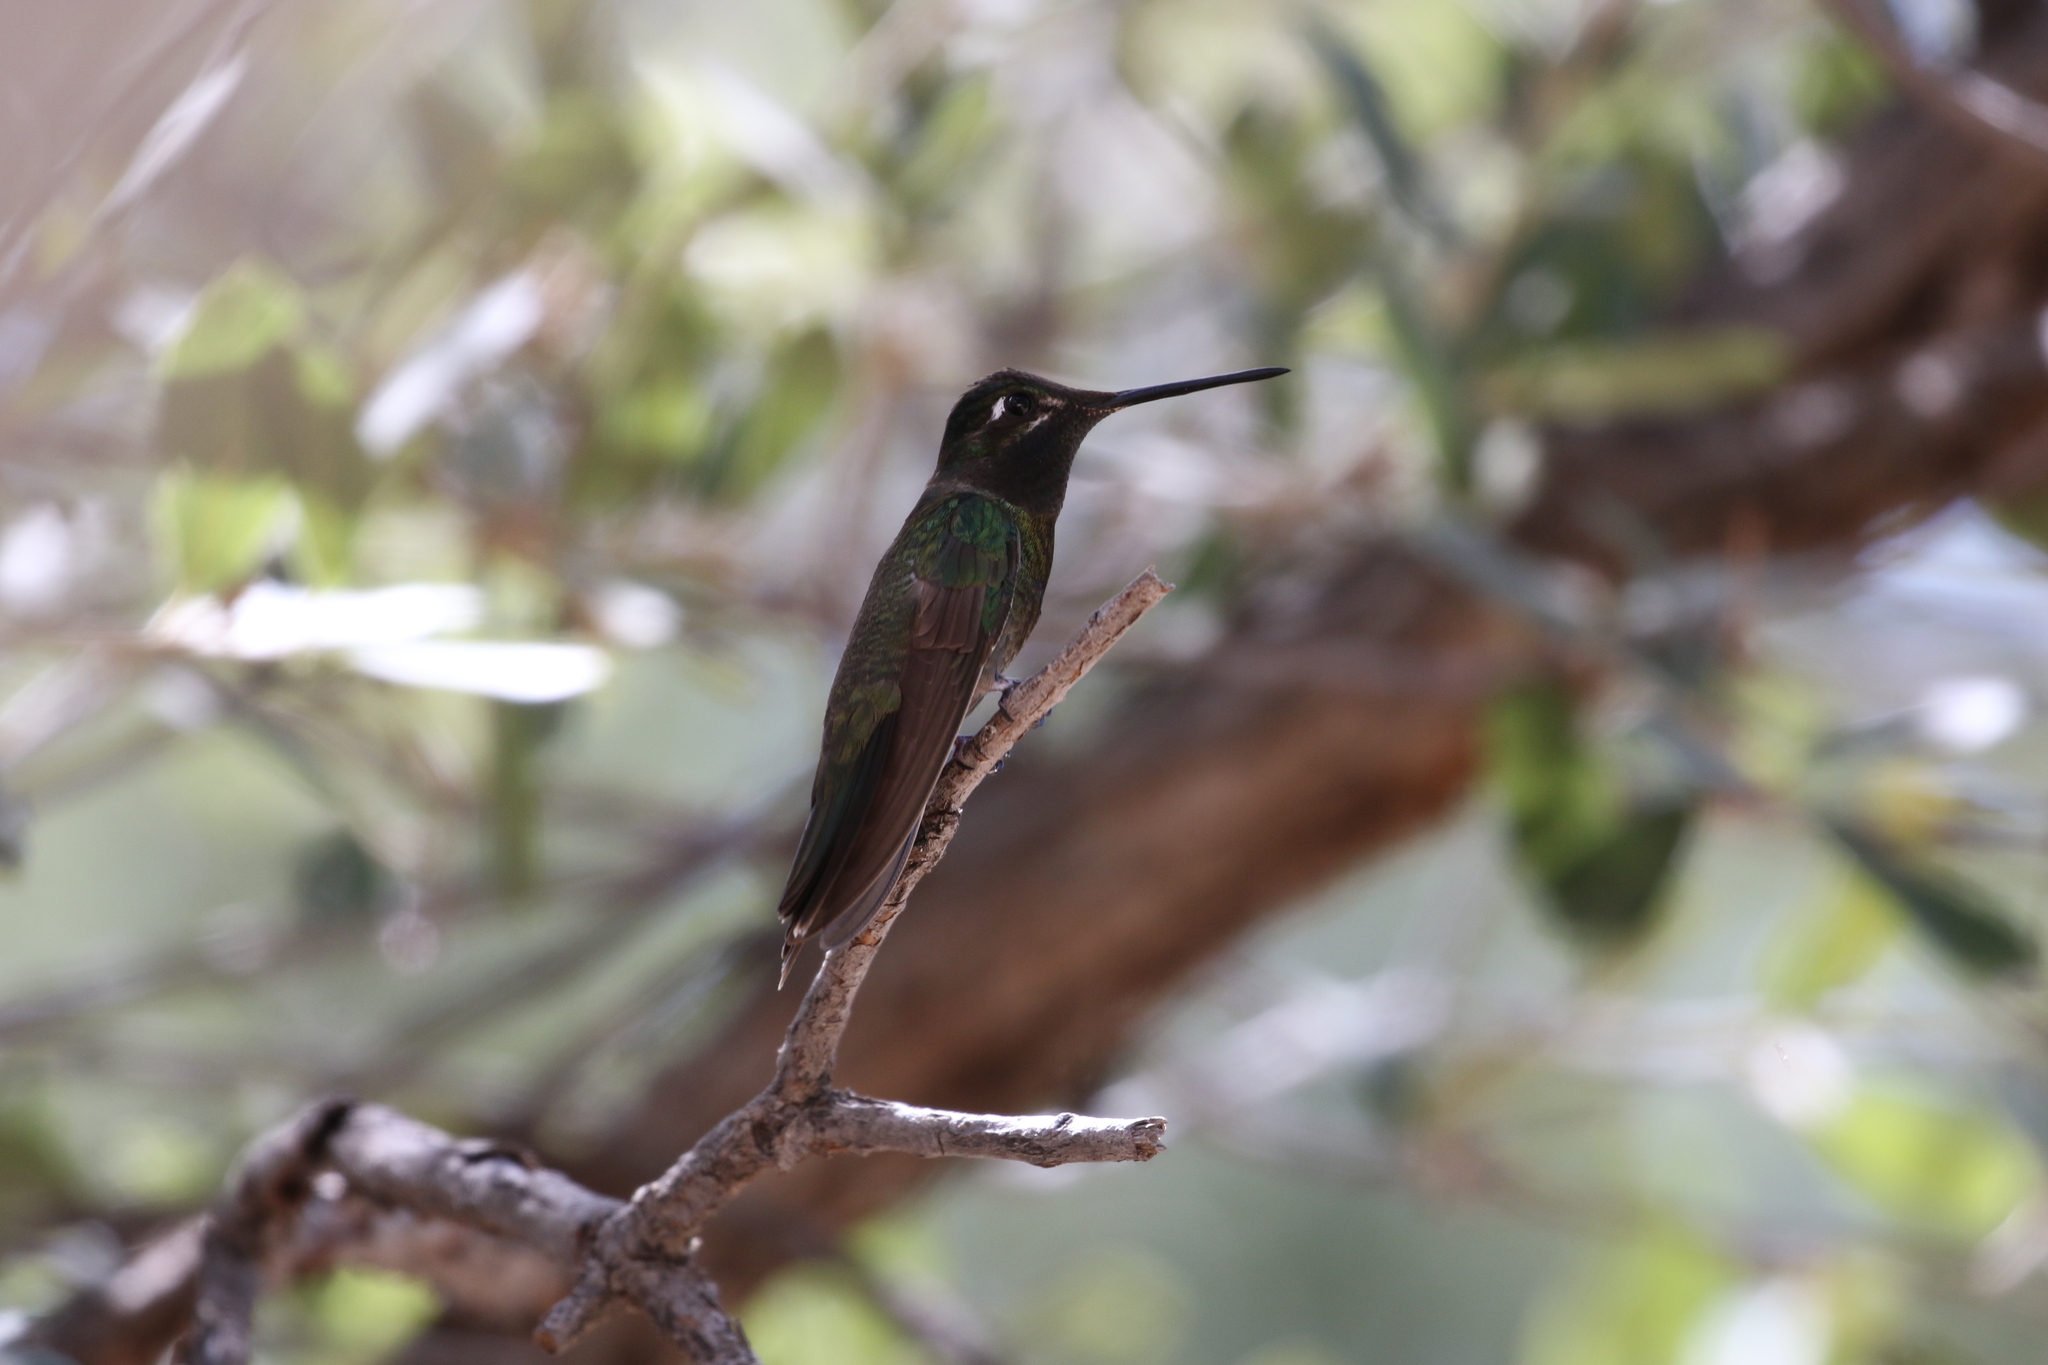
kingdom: Animalia
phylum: Chordata
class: Aves
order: Apodiformes
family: Trochilidae
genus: Eugenes
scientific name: Eugenes fulgens
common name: Magnificent hummingbird
